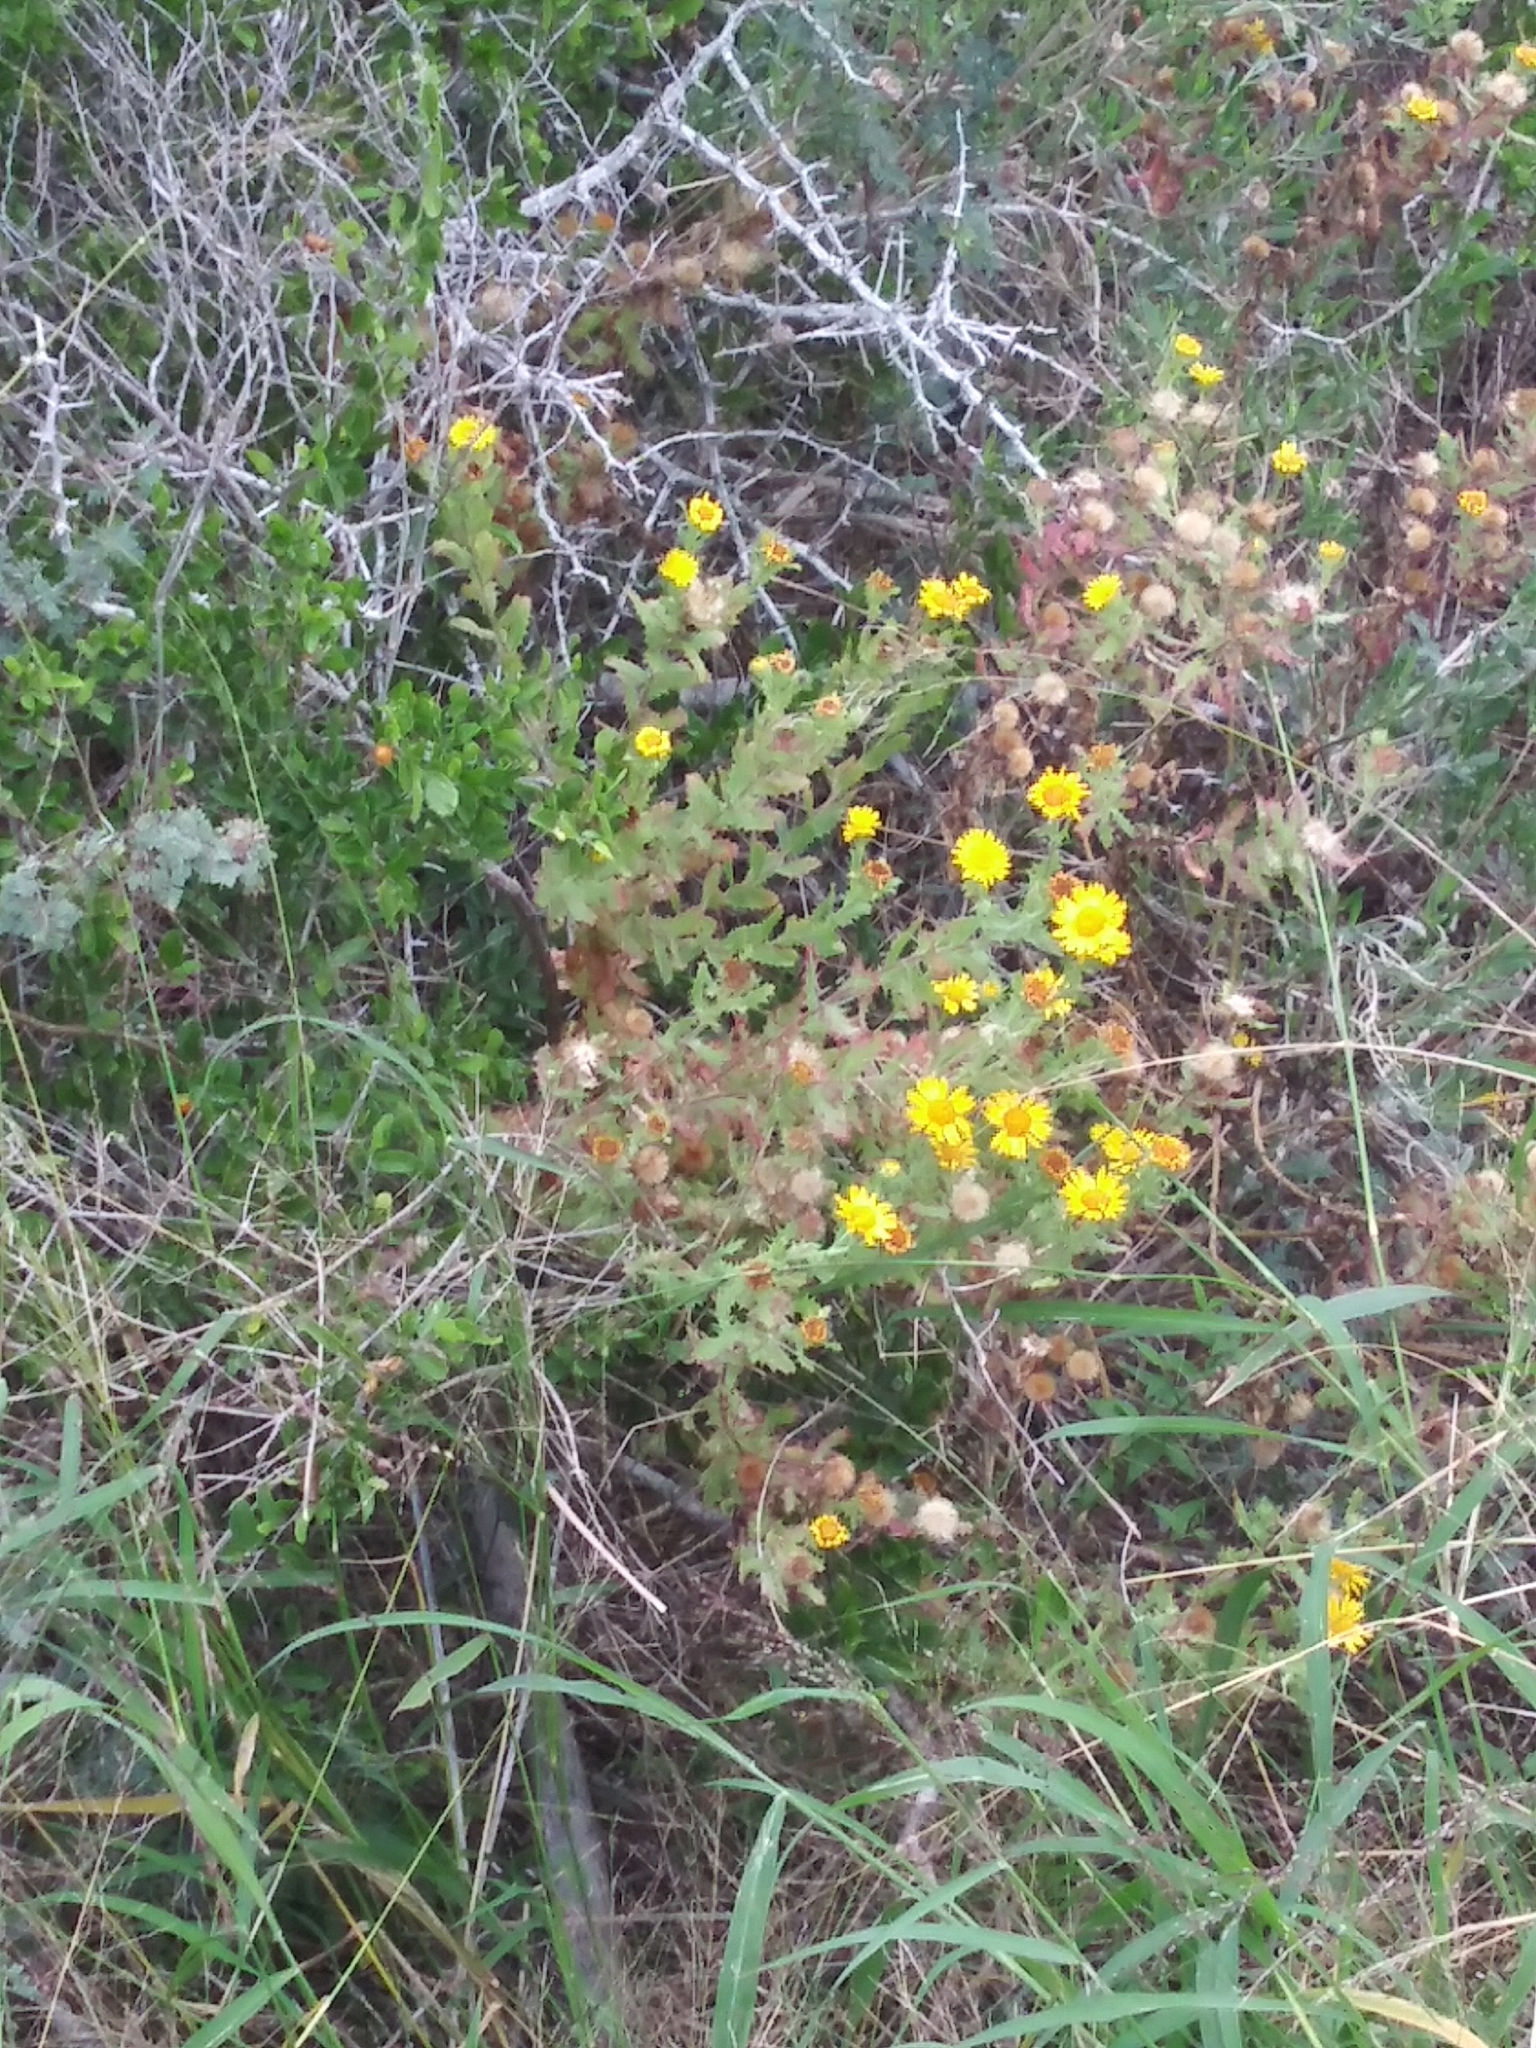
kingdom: Plantae
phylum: Tracheophyta
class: Magnoliopsida
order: Asterales
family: Asteraceae
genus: Rayjacksonia
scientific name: Rayjacksonia phyllocephala
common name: Gulf coast camphor daisy
